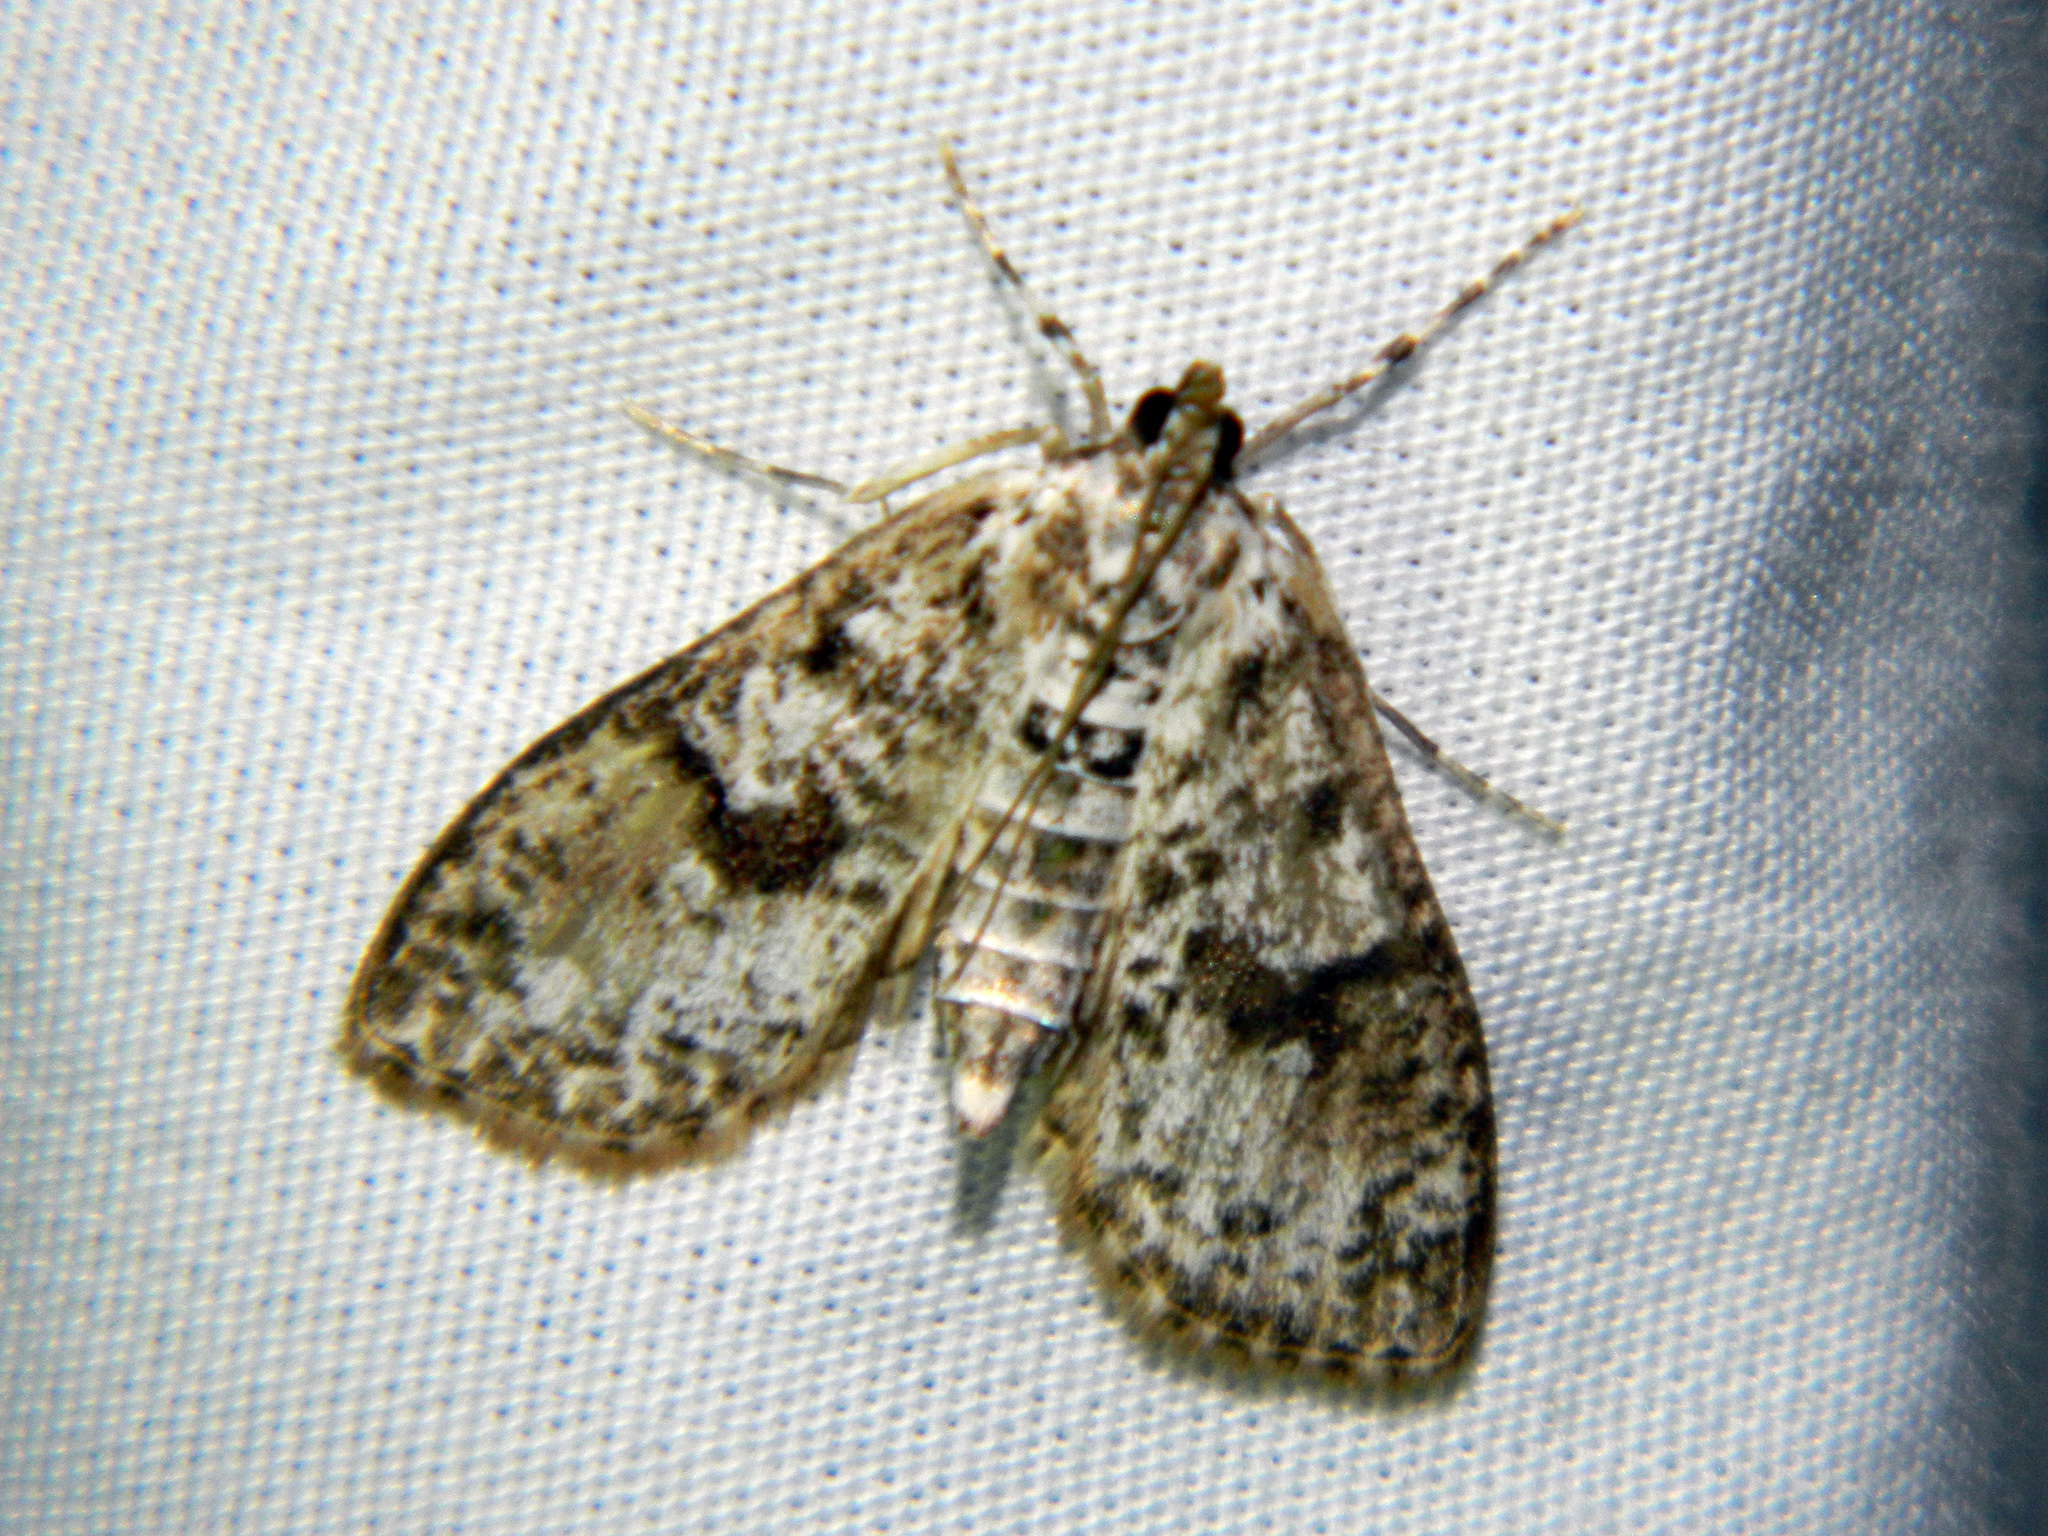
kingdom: Animalia
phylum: Arthropoda
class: Insecta
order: Lepidoptera
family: Crambidae
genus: Palpita
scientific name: Palpita magniferalis
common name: Splendid palpita moth
